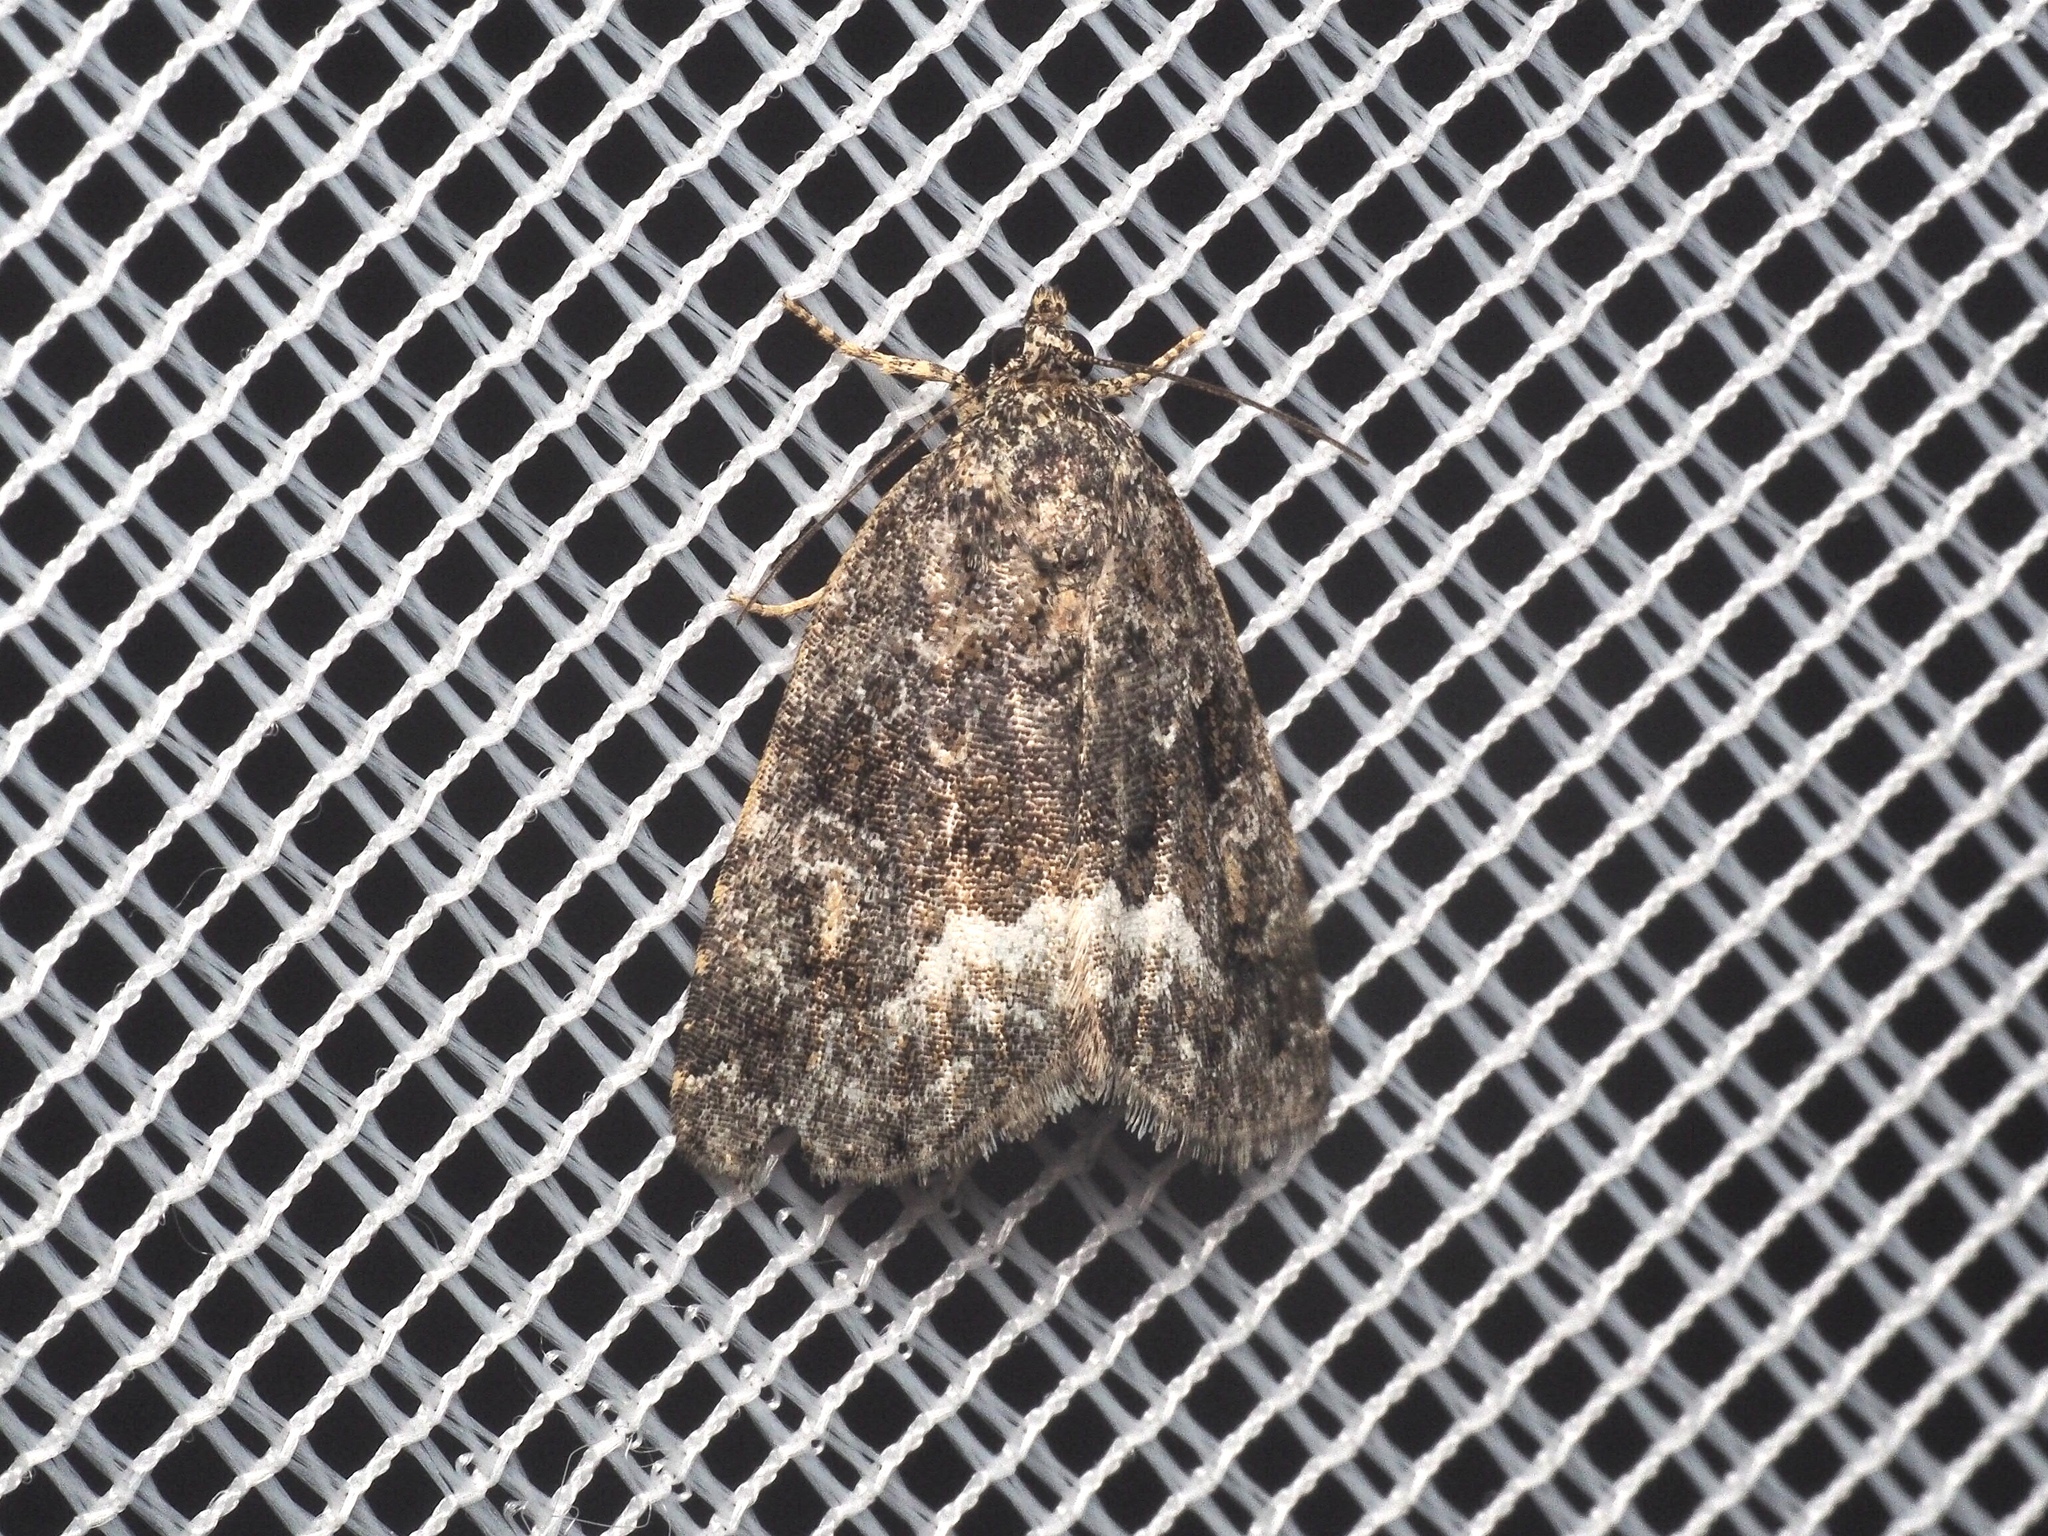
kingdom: Animalia
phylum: Arthropoda
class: Insecta
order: Lepidoptera
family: Noctuidae
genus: Deltote
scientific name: Deltote pygarga
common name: Marbled white spot
